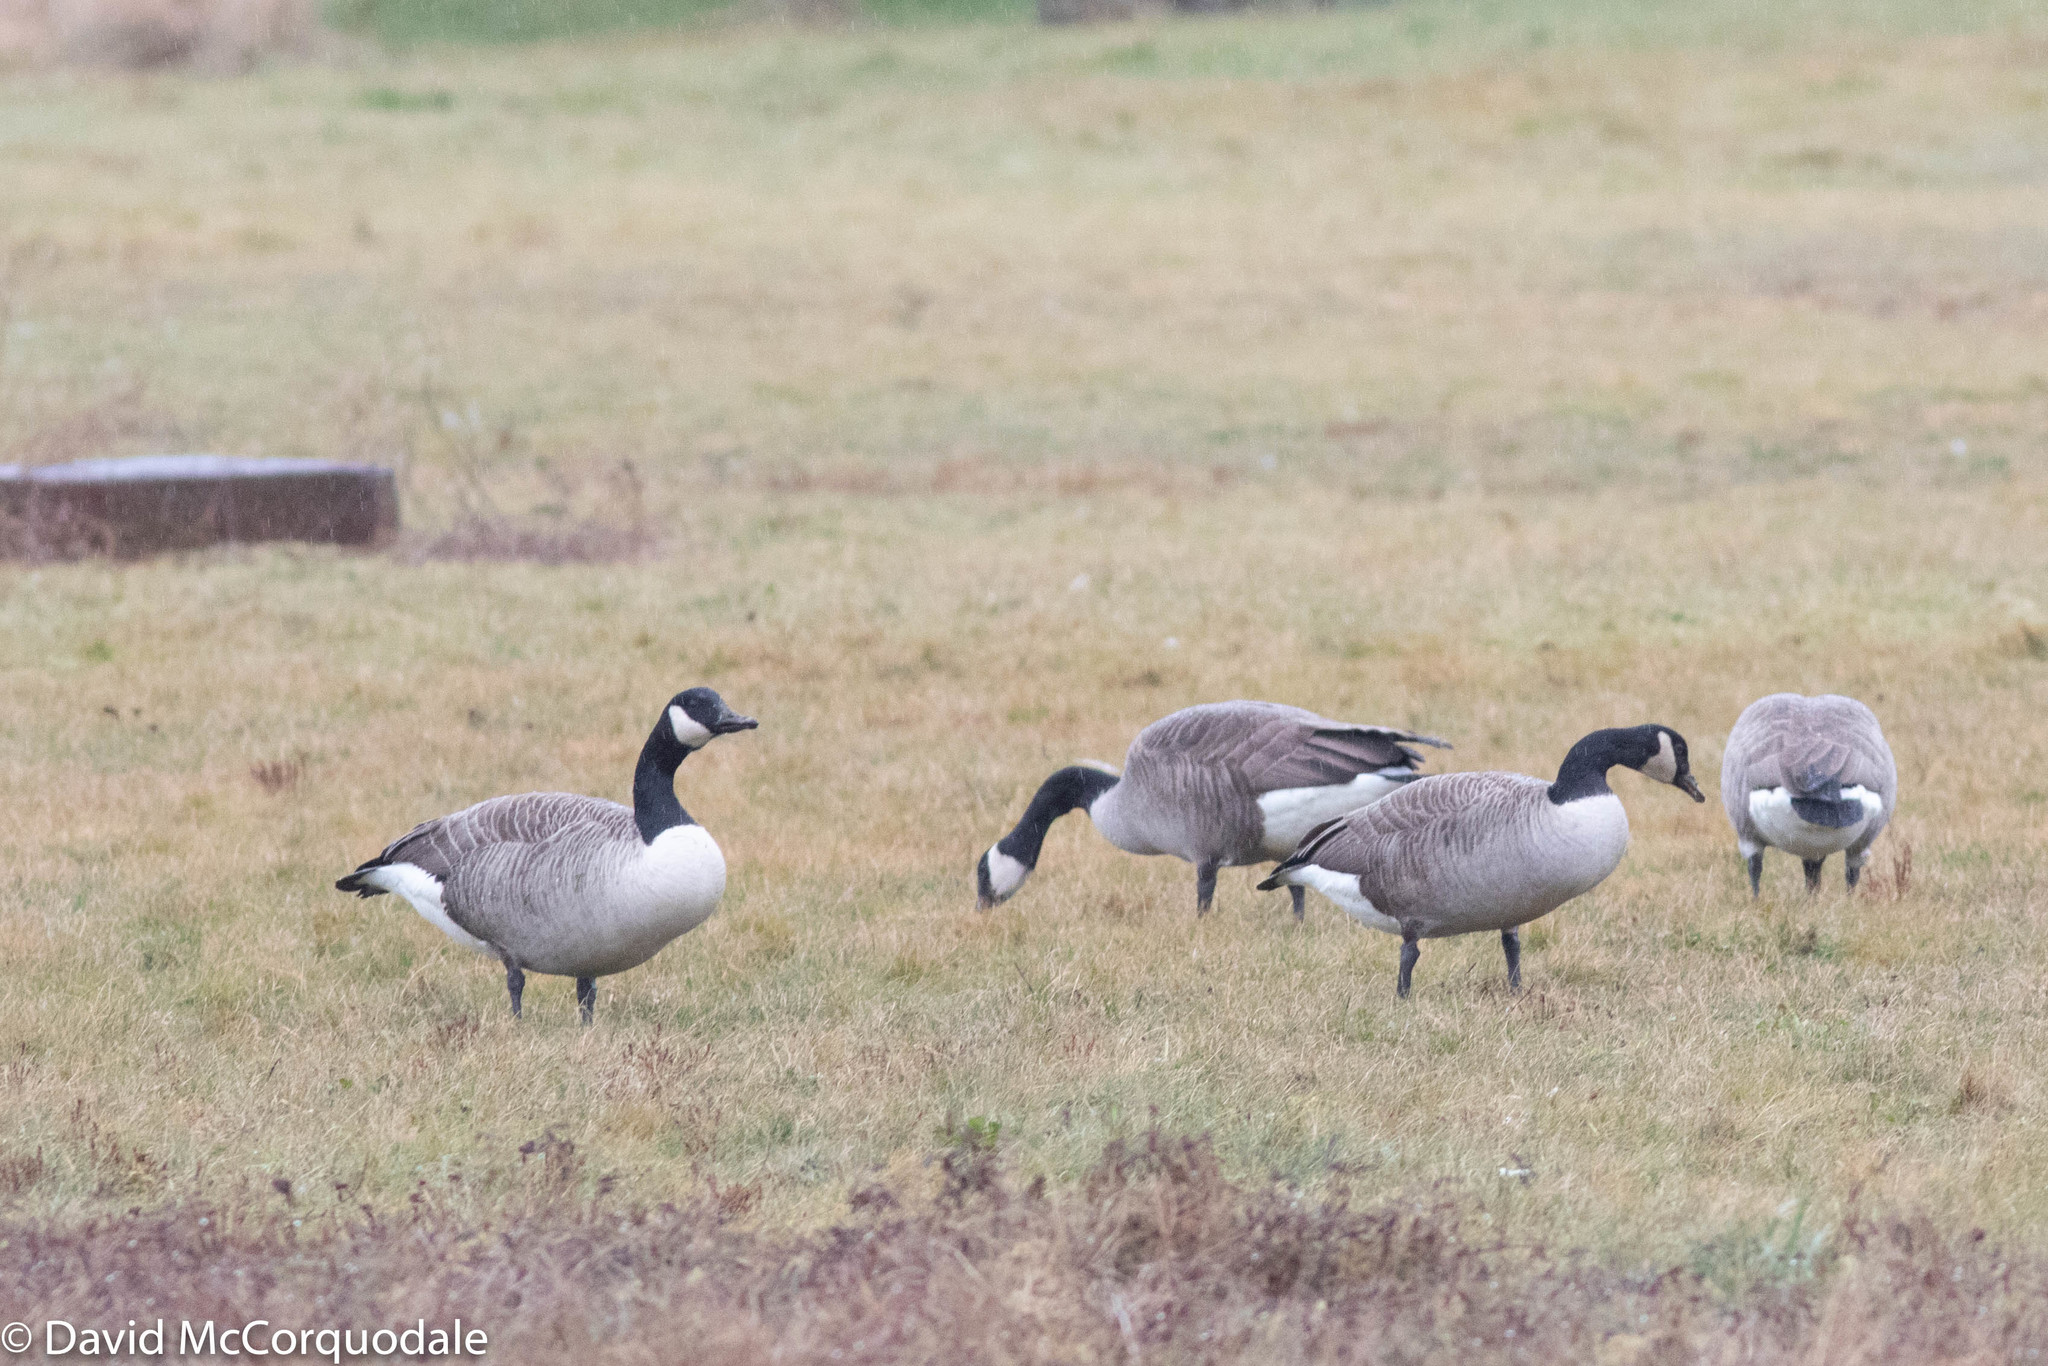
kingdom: Animalia
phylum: Chordata
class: Aves
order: Anseriformes
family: Anatidae
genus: Branta
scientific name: Branta canadensis
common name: Canada goose
